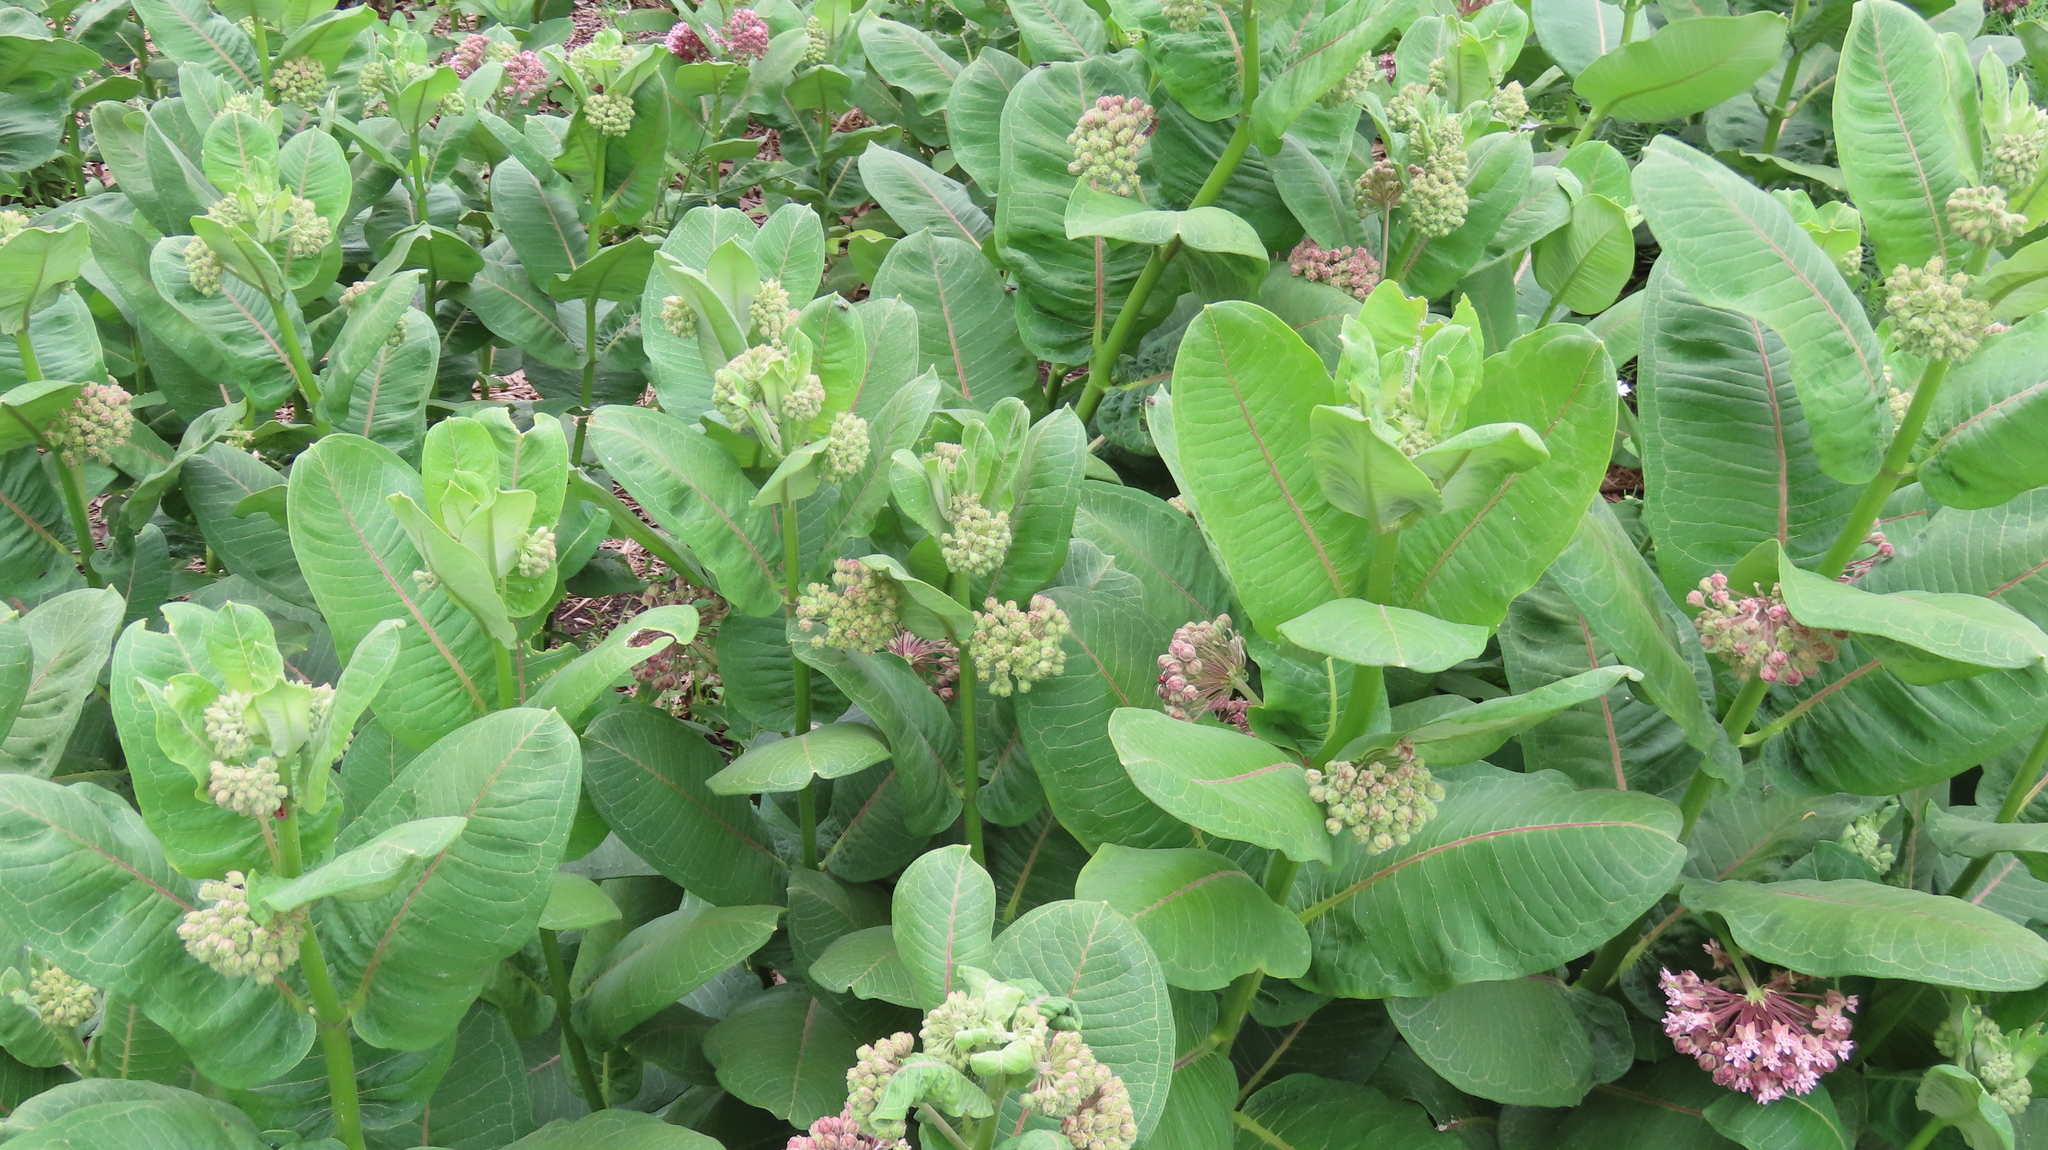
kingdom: Plantae
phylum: Tracheophyta
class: Magnoliopsida
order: Gentianales
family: Apocynaceae
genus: Asclepias
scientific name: Asclepias syriaca
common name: Common milkweed
